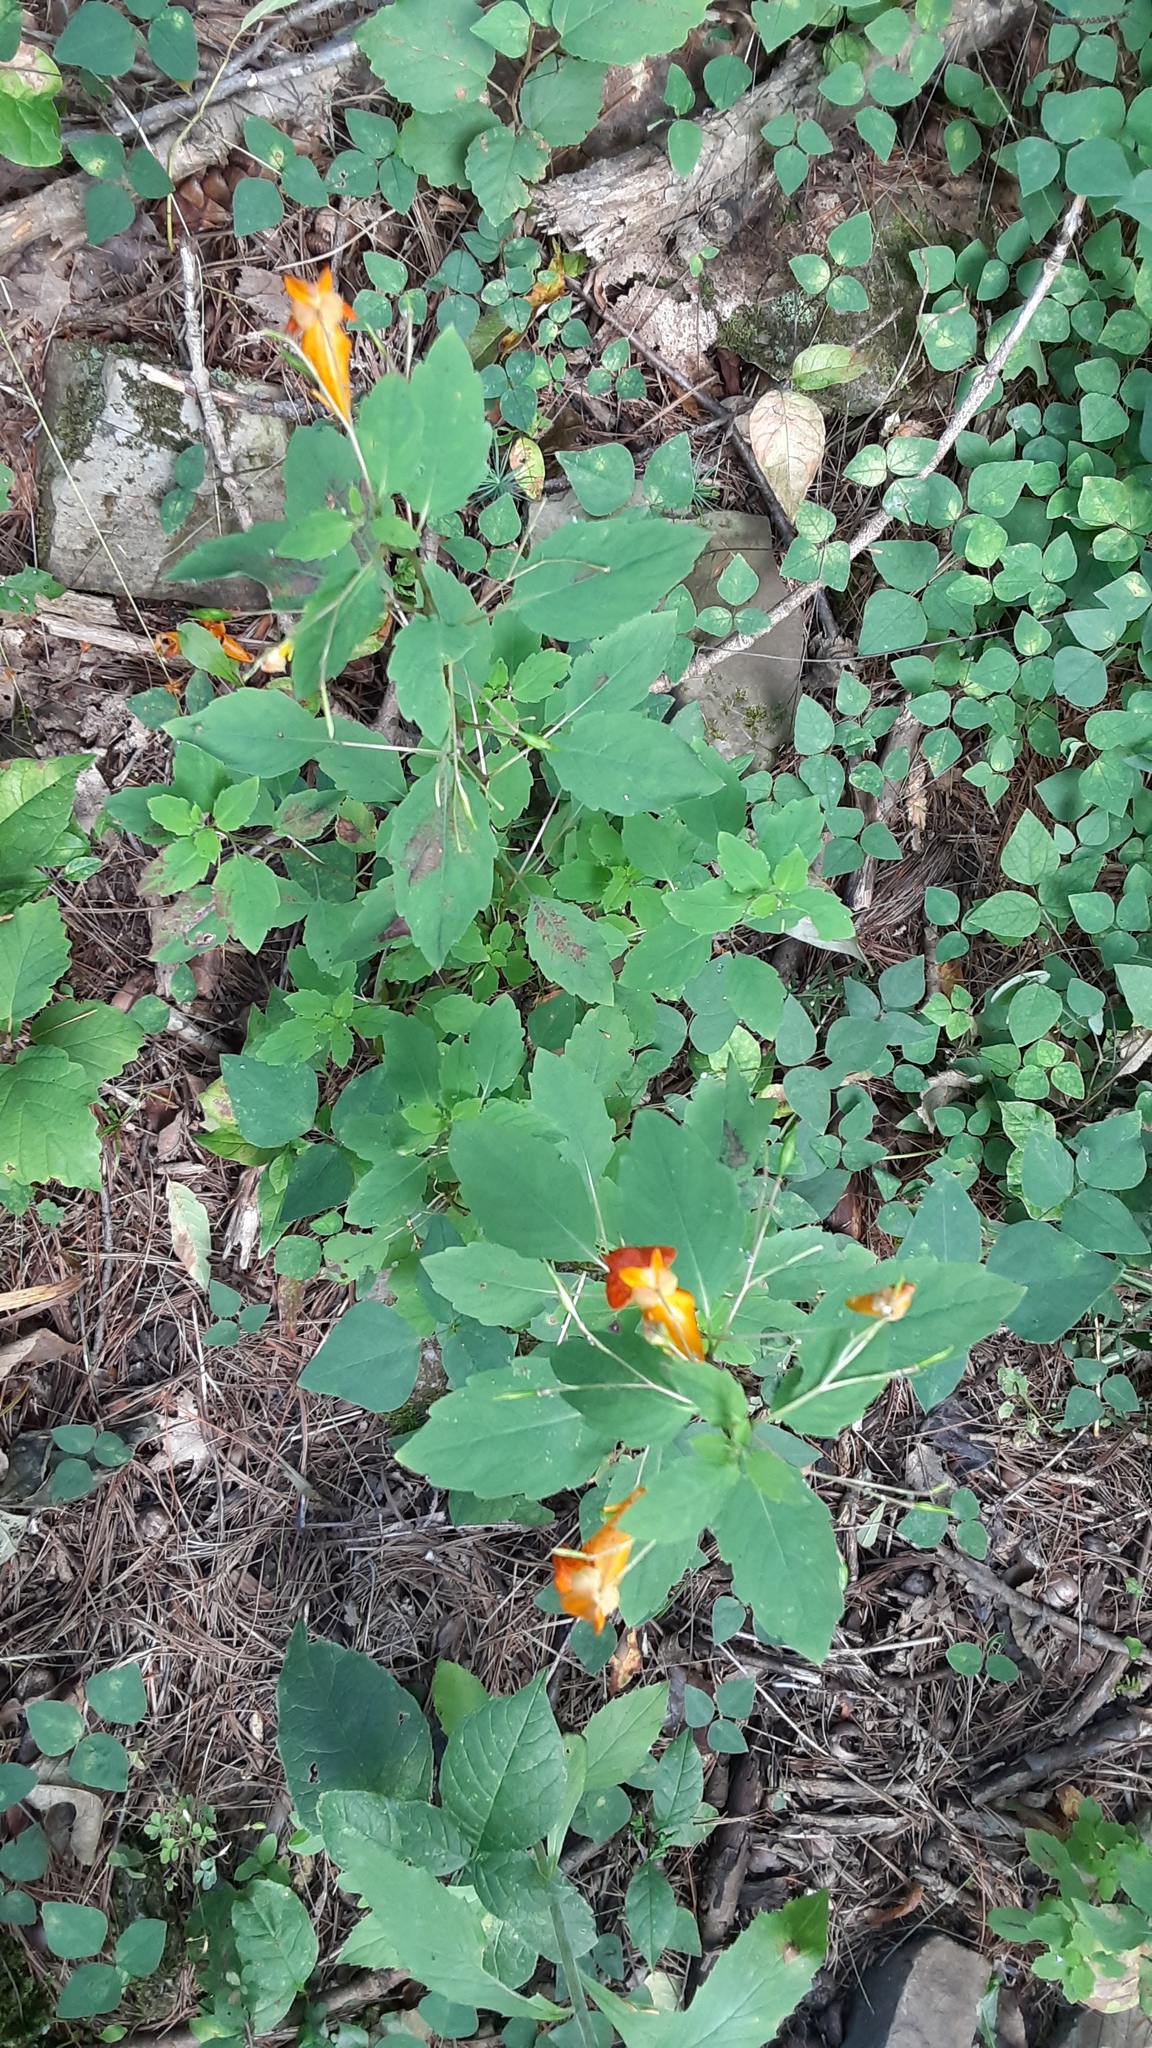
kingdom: Plantae
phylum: Tracheophyta
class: Magnoliopsida
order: Ericales
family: Balsaminaceae
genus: Impatiens
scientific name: Impatiens capensis
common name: Orange balsam
